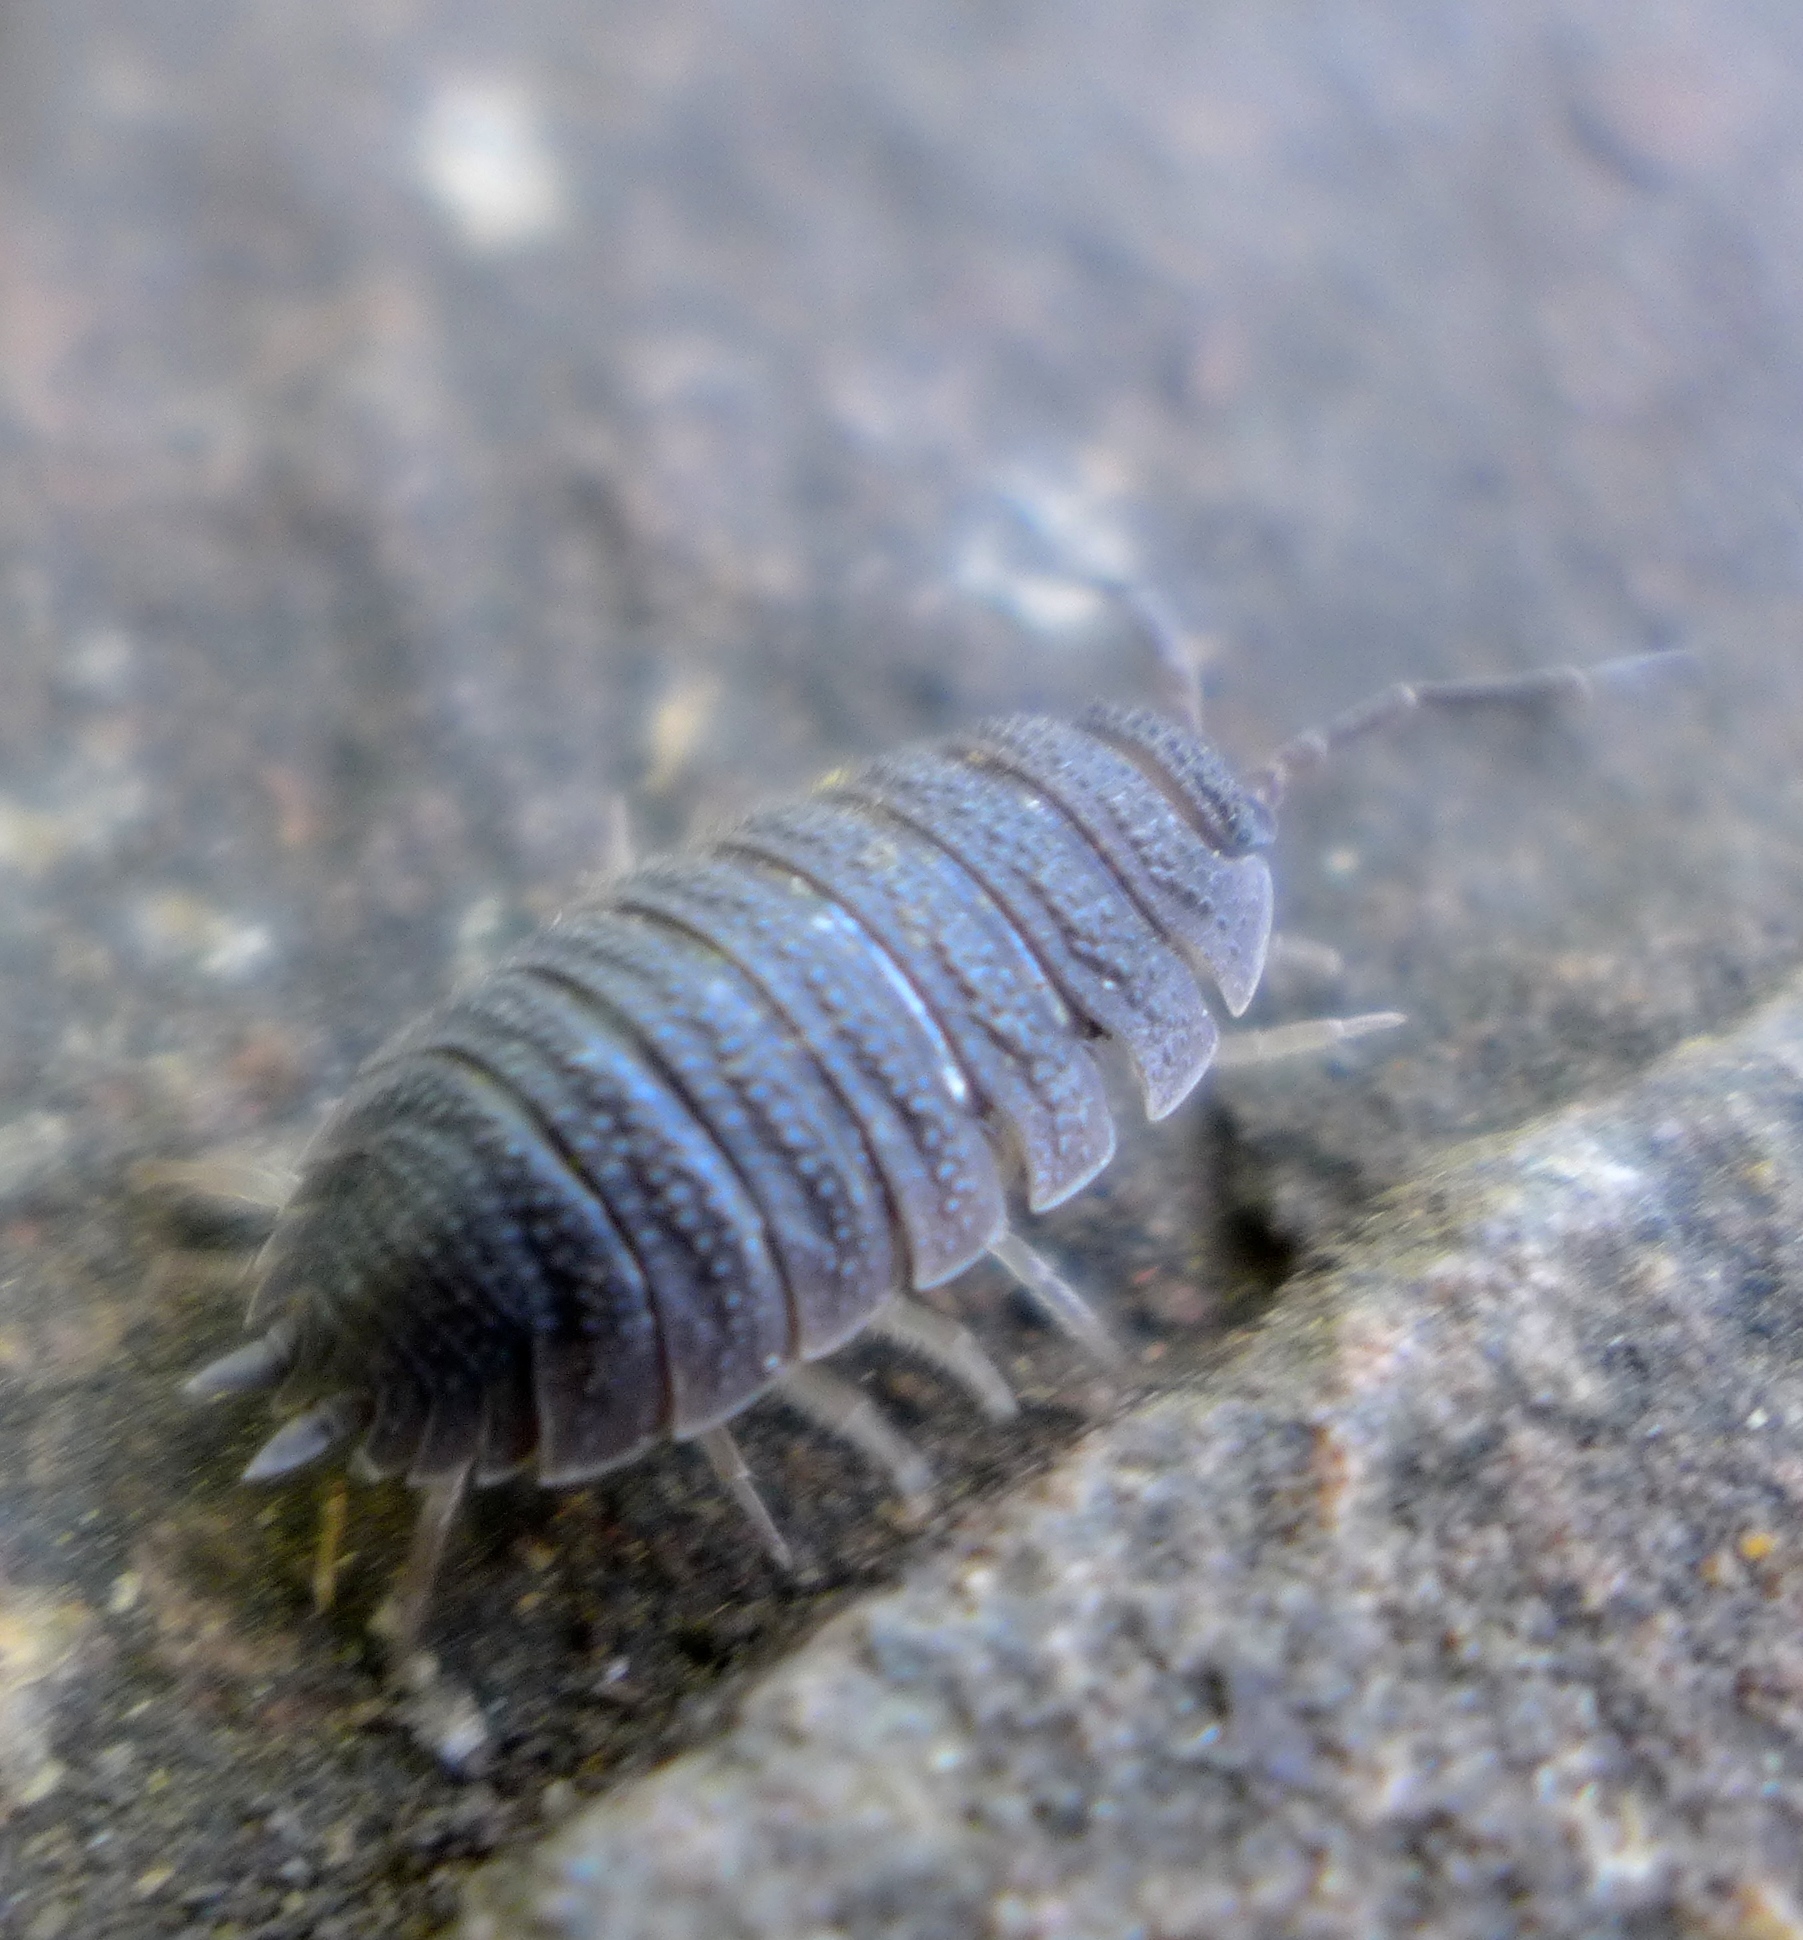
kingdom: Animalia
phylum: Arthropoda
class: Malacostraca
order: Isopoda
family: Porcellionidae
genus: Porcellio
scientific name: Porcellio scaber
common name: Common rough woodlouse
